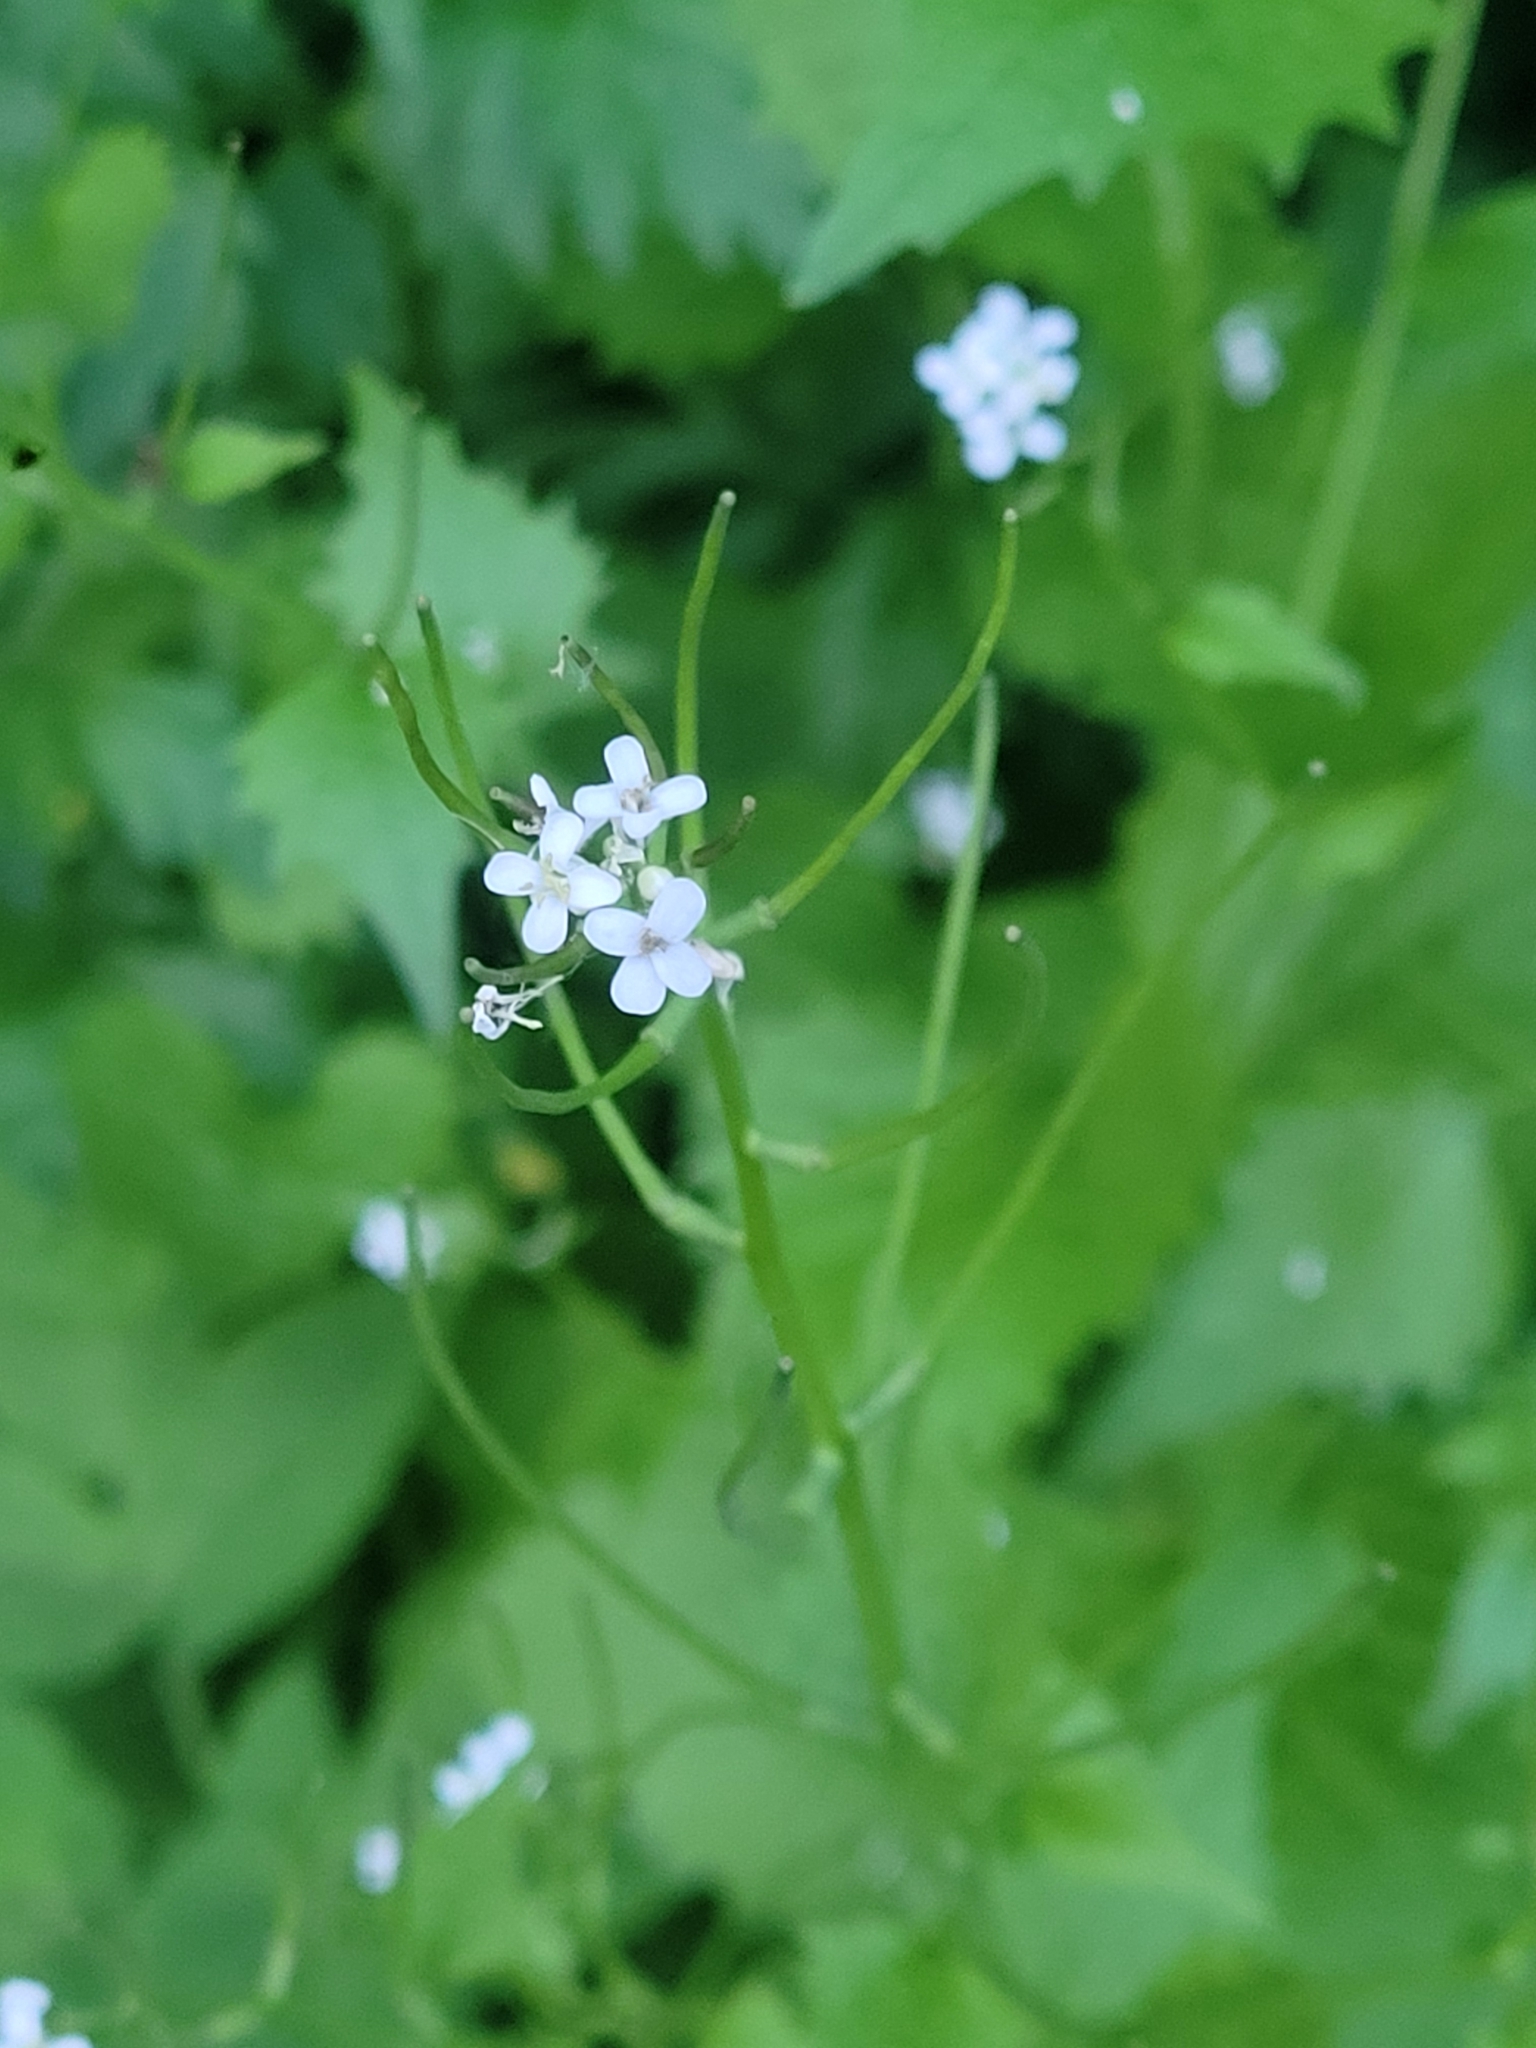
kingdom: Plantae
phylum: Tracheophyta
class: Magnoliopsida
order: Brassicales
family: Brassicaceae
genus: Alliaria
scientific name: Alliaria petiolata
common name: Garlic mustard
